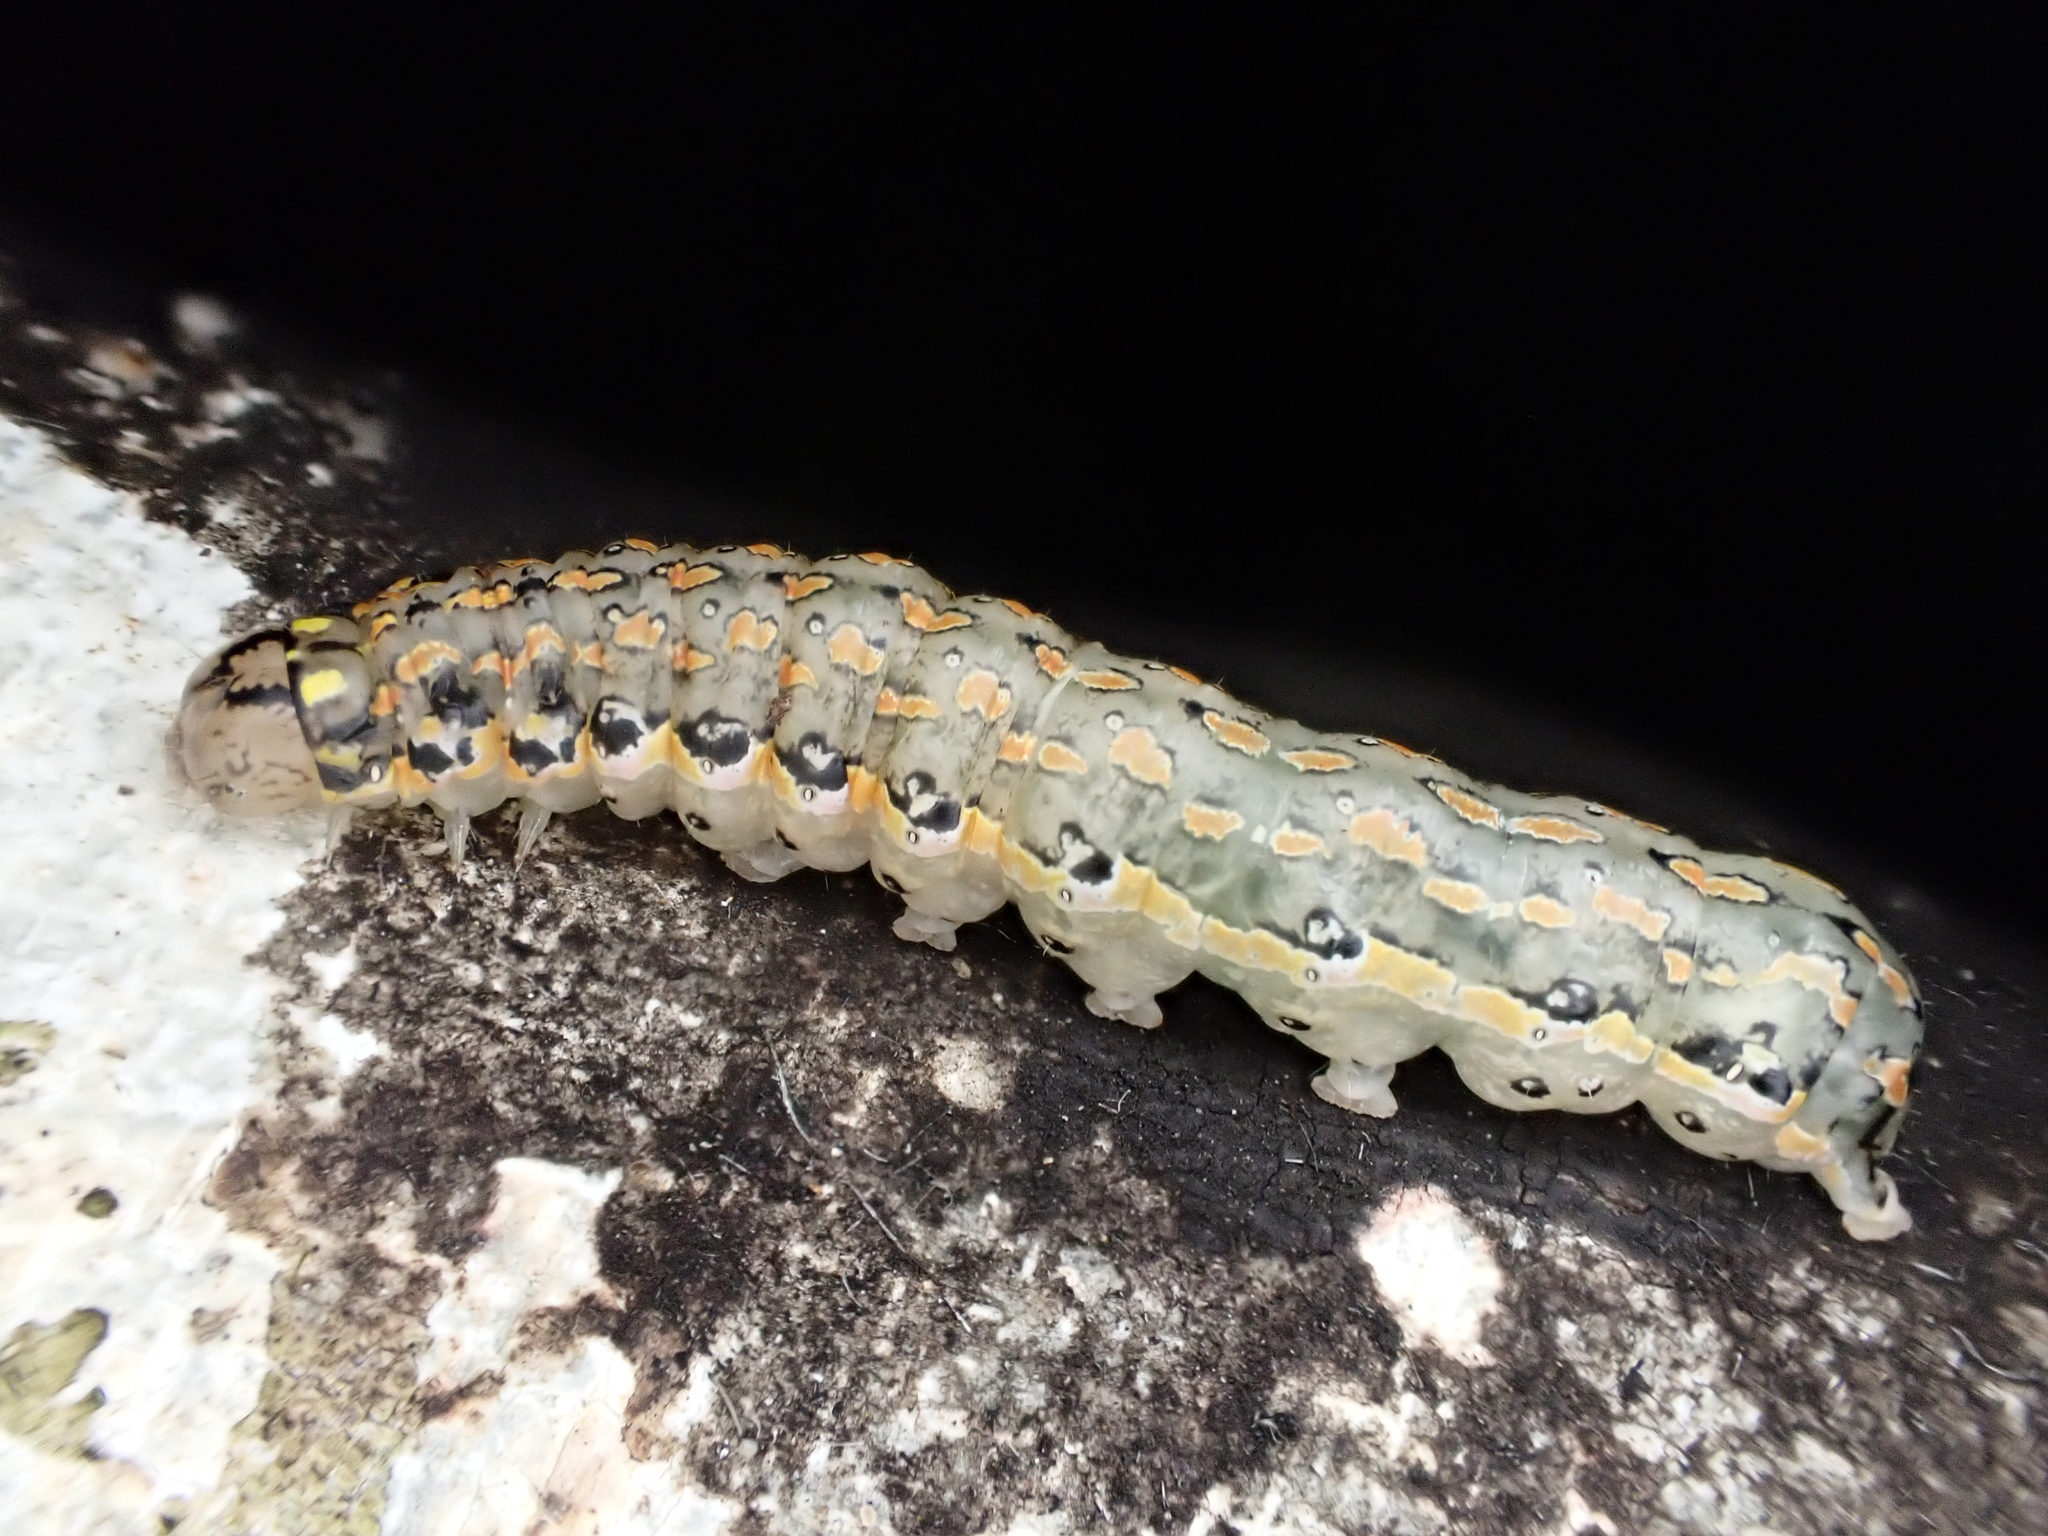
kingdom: Animalia
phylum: Arthropoda
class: Insecta
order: Lepidoptera
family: Noctuidae
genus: Austramathes
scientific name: Austramathes purpurea
